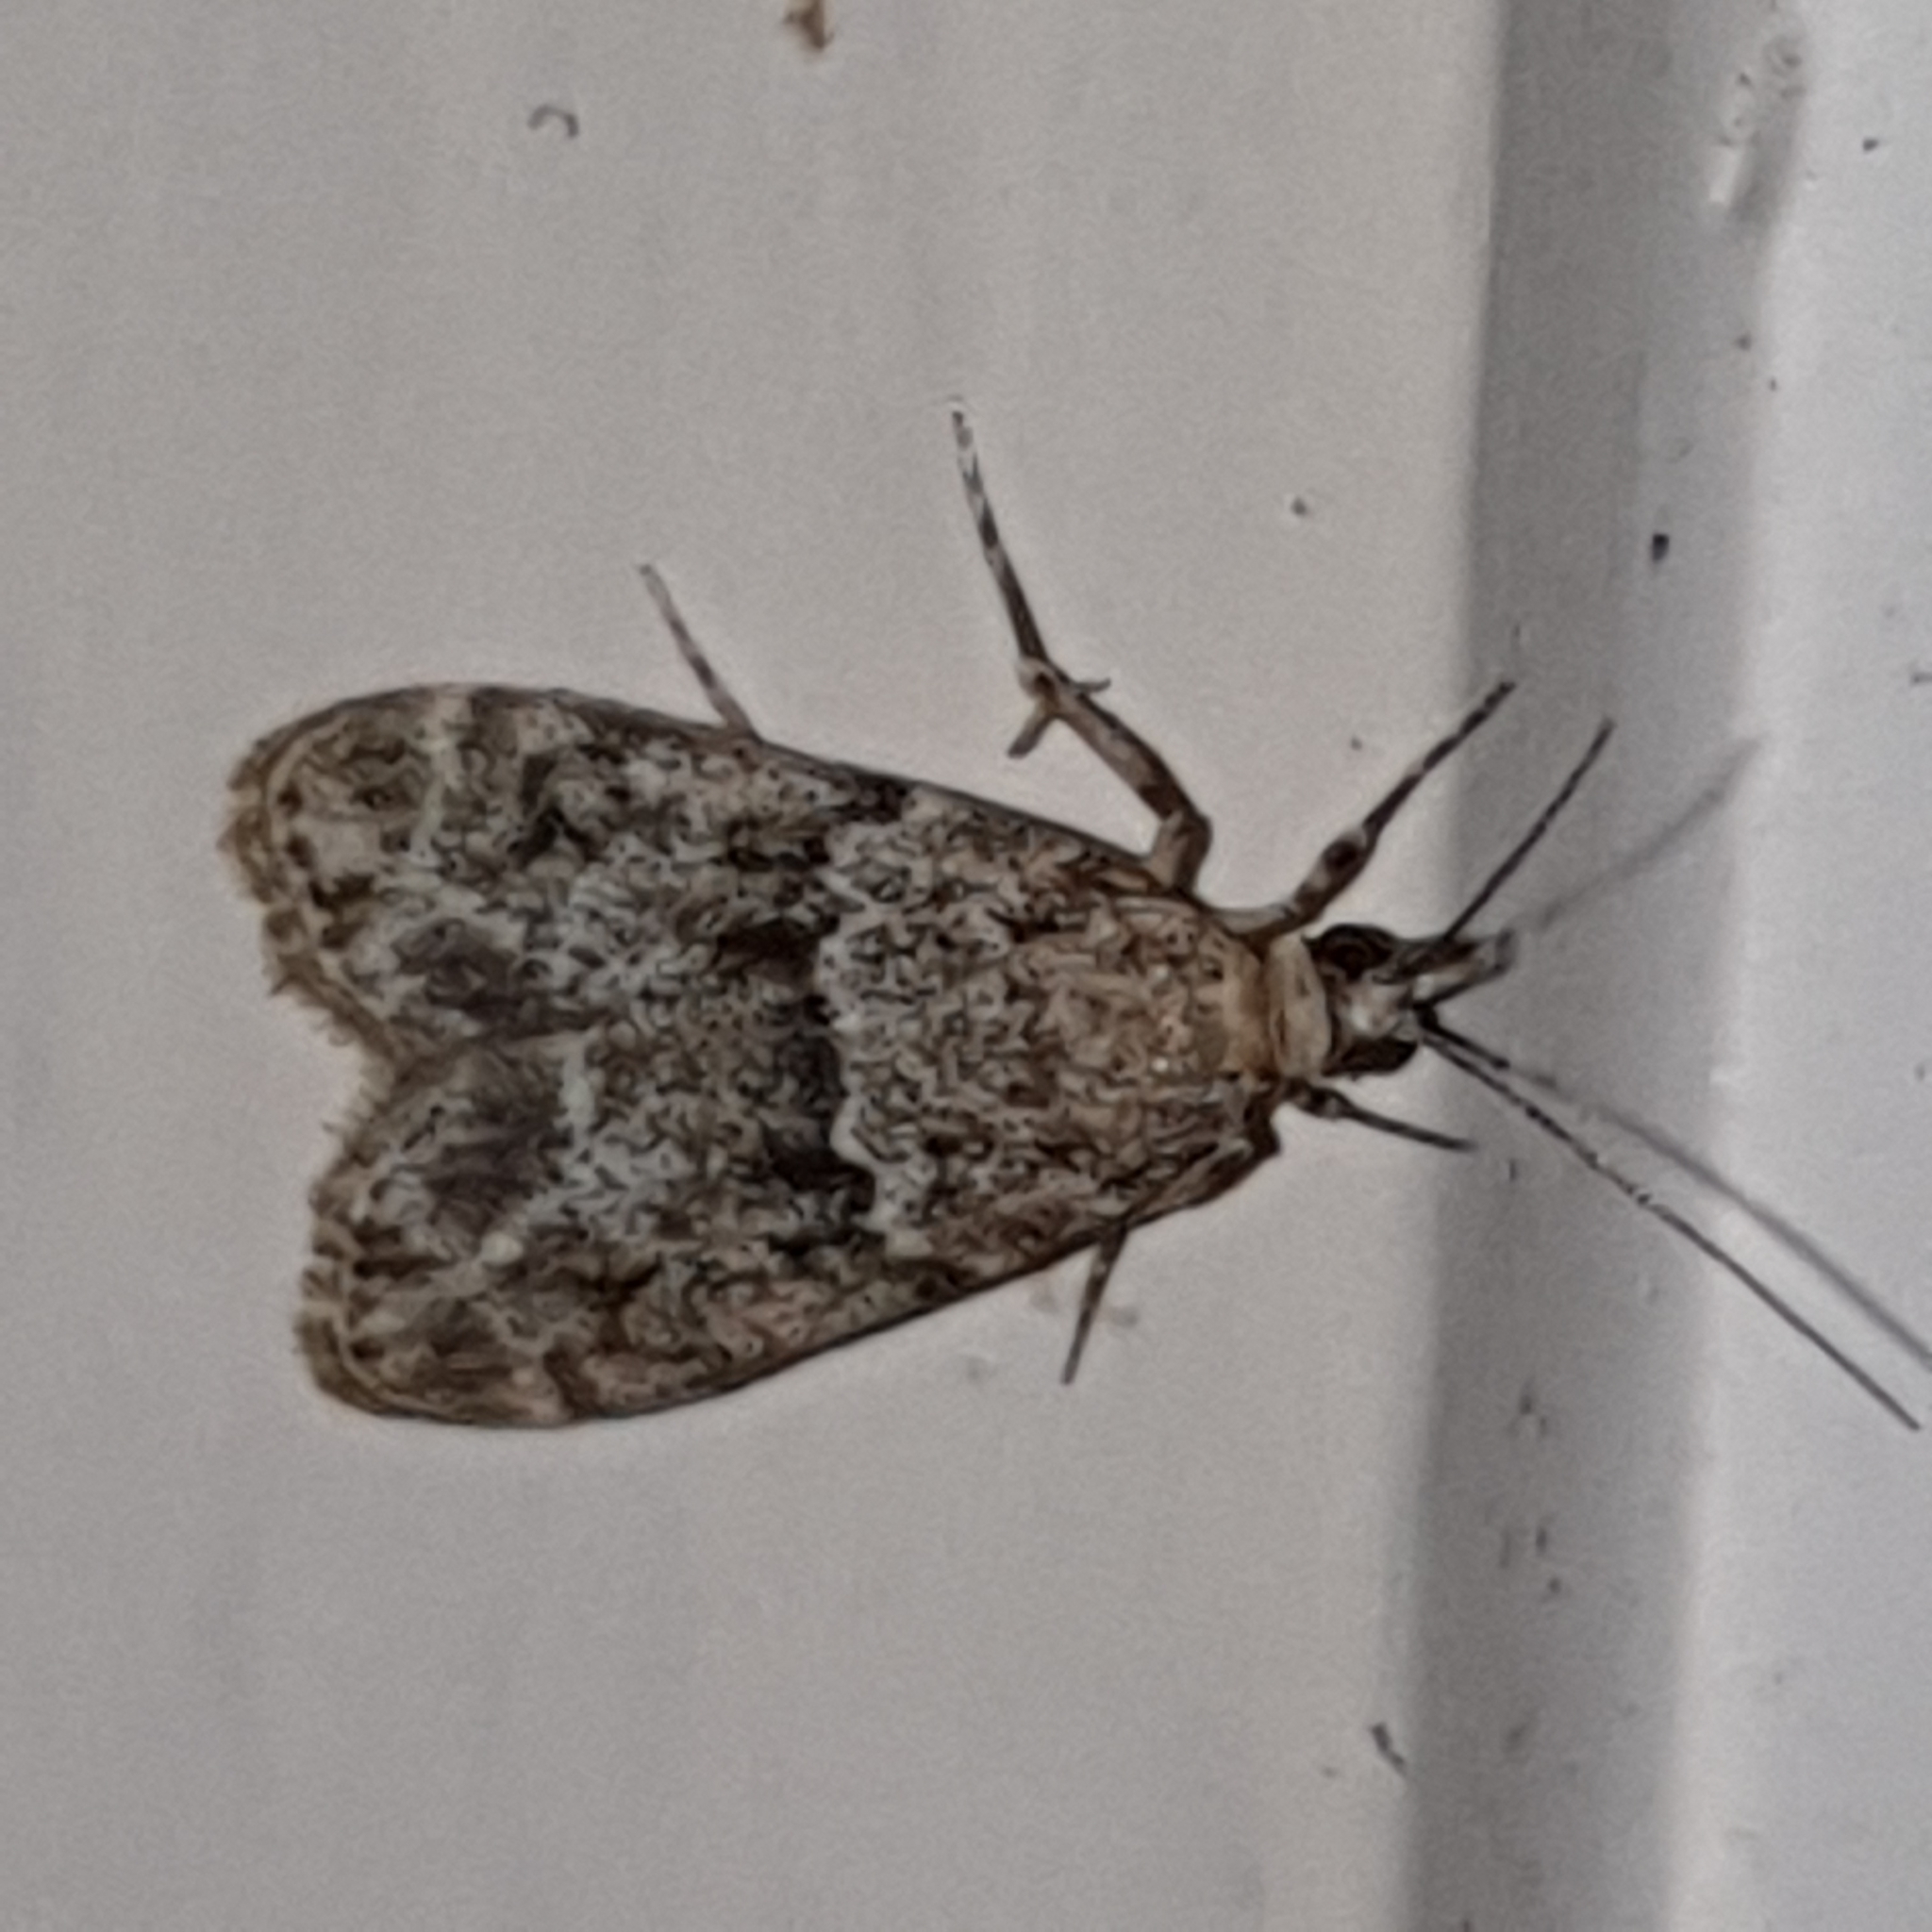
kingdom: Animalia
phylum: Arthropoda
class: Insecta
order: Lepidoptera
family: Crambidae
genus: Eudonia
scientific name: Eudonia truncicolella
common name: Ground-moss grey
